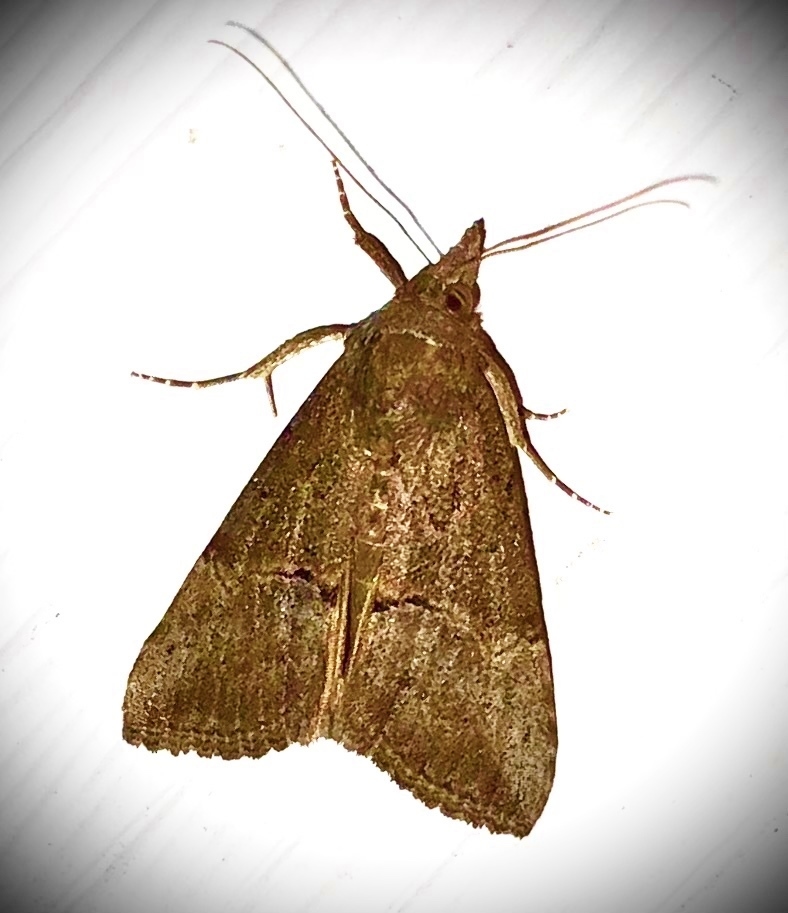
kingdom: Animalia
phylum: Arthropoda
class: Insecta
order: Lepidoptera
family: Erebidae
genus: Hypena
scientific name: Hypena scabra
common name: Green cloverworm
